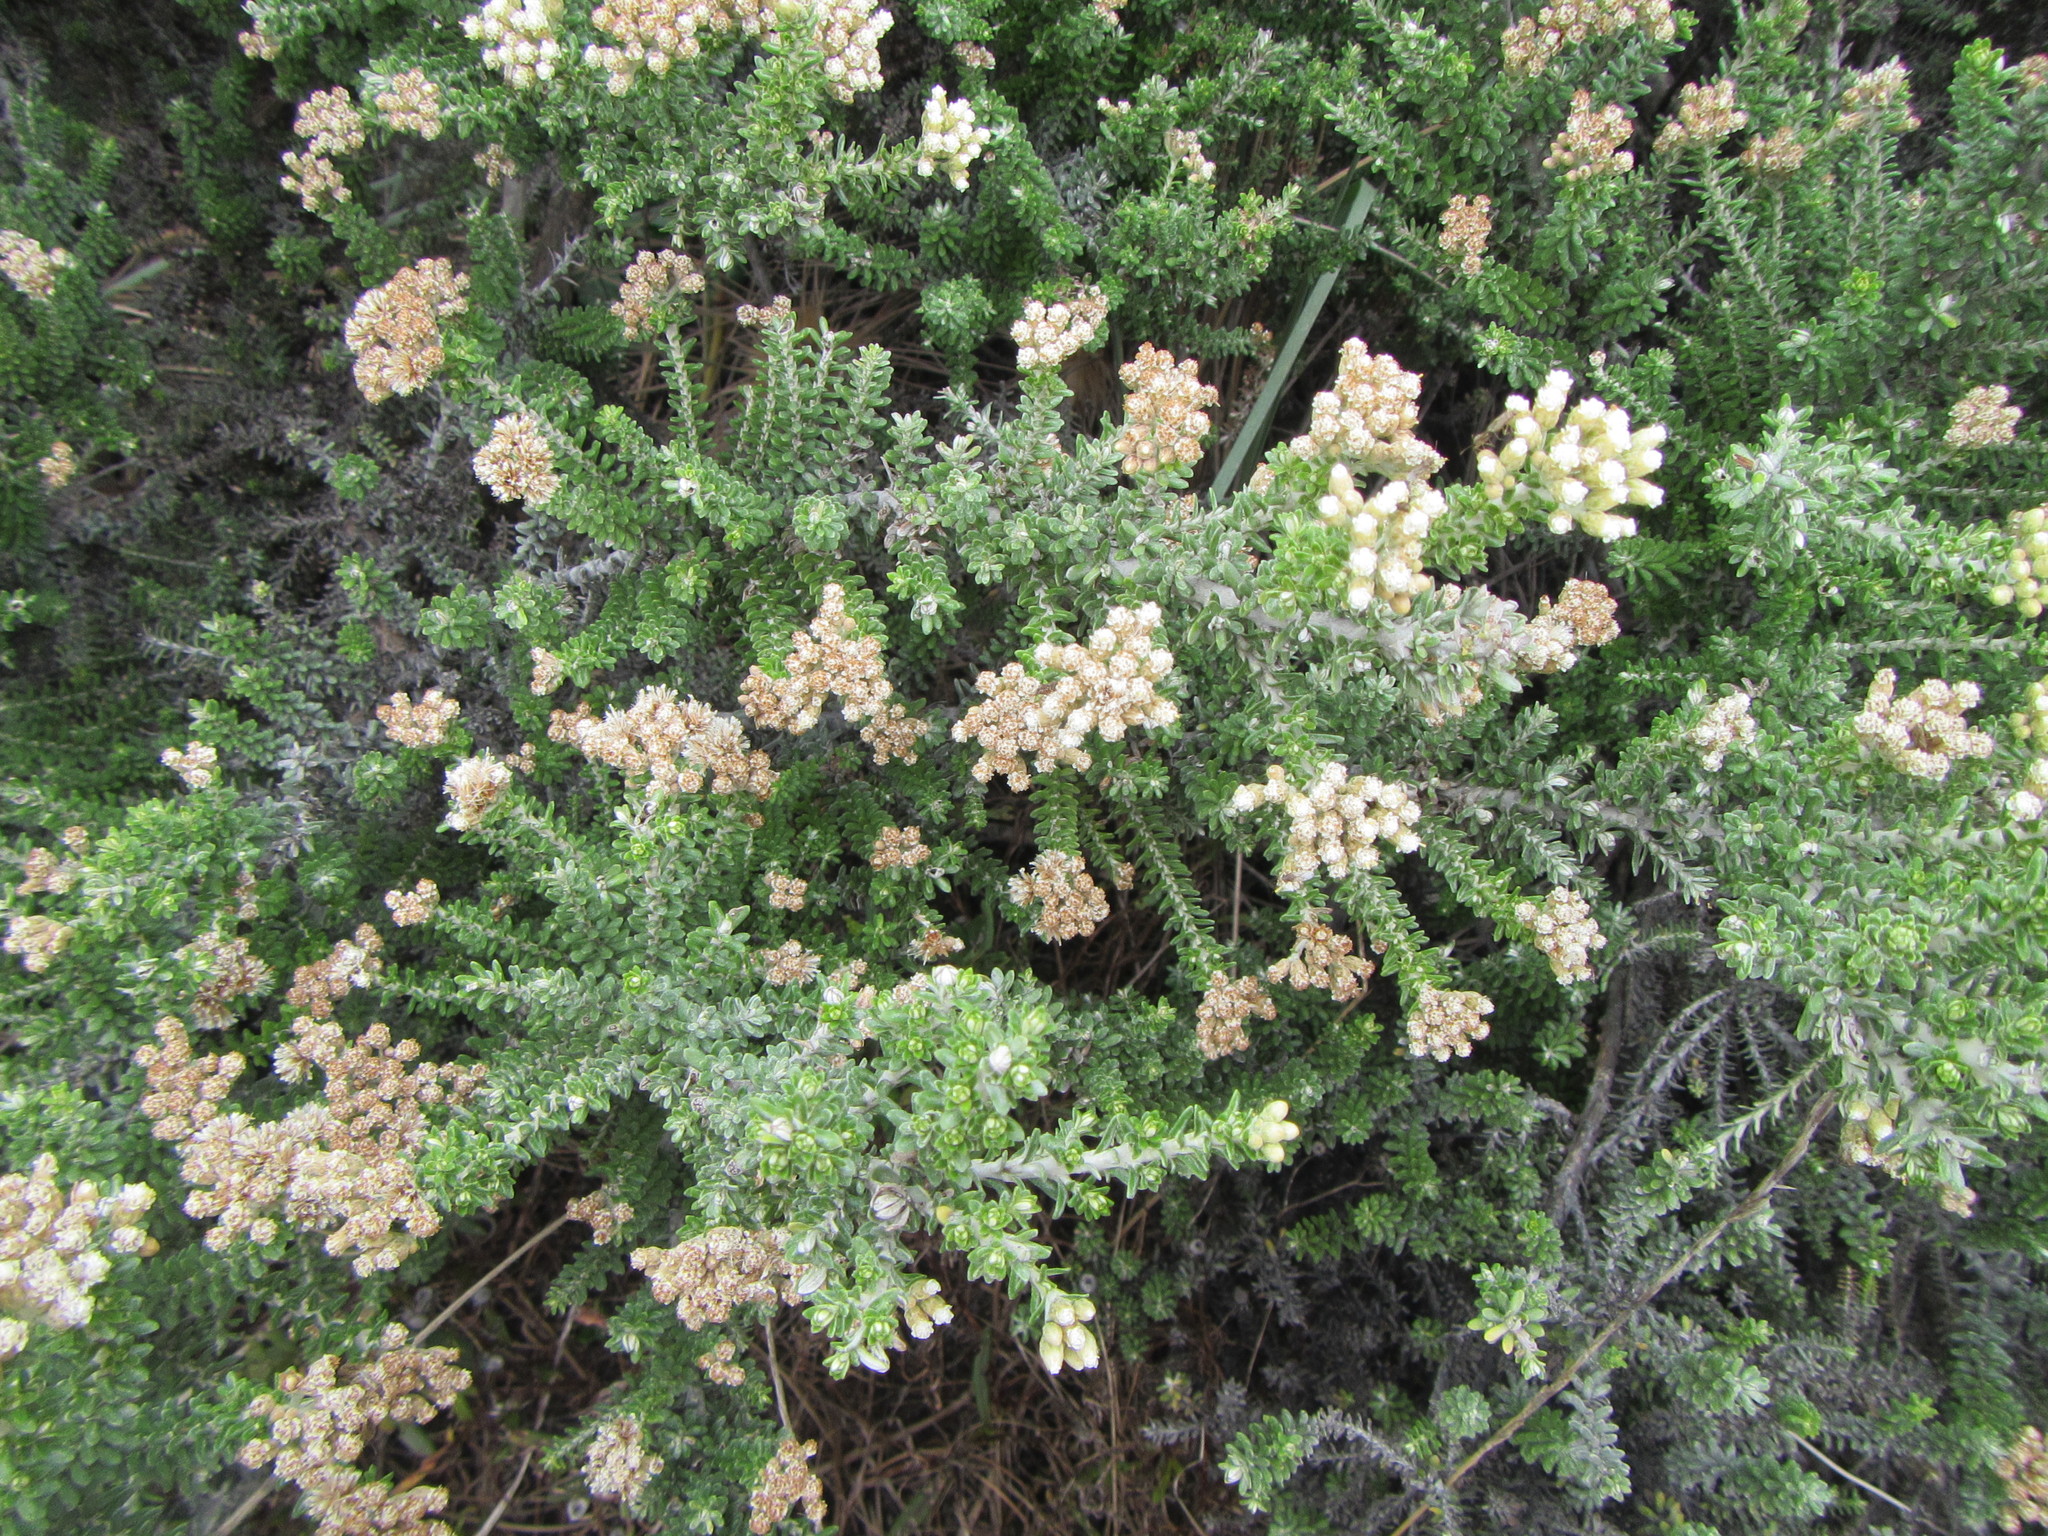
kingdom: Plantae
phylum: Tracheophyta
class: Magnoliopsida
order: Asterales
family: Asteraceae
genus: Ozothamnus
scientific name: Ozothamnus leptophyllus
